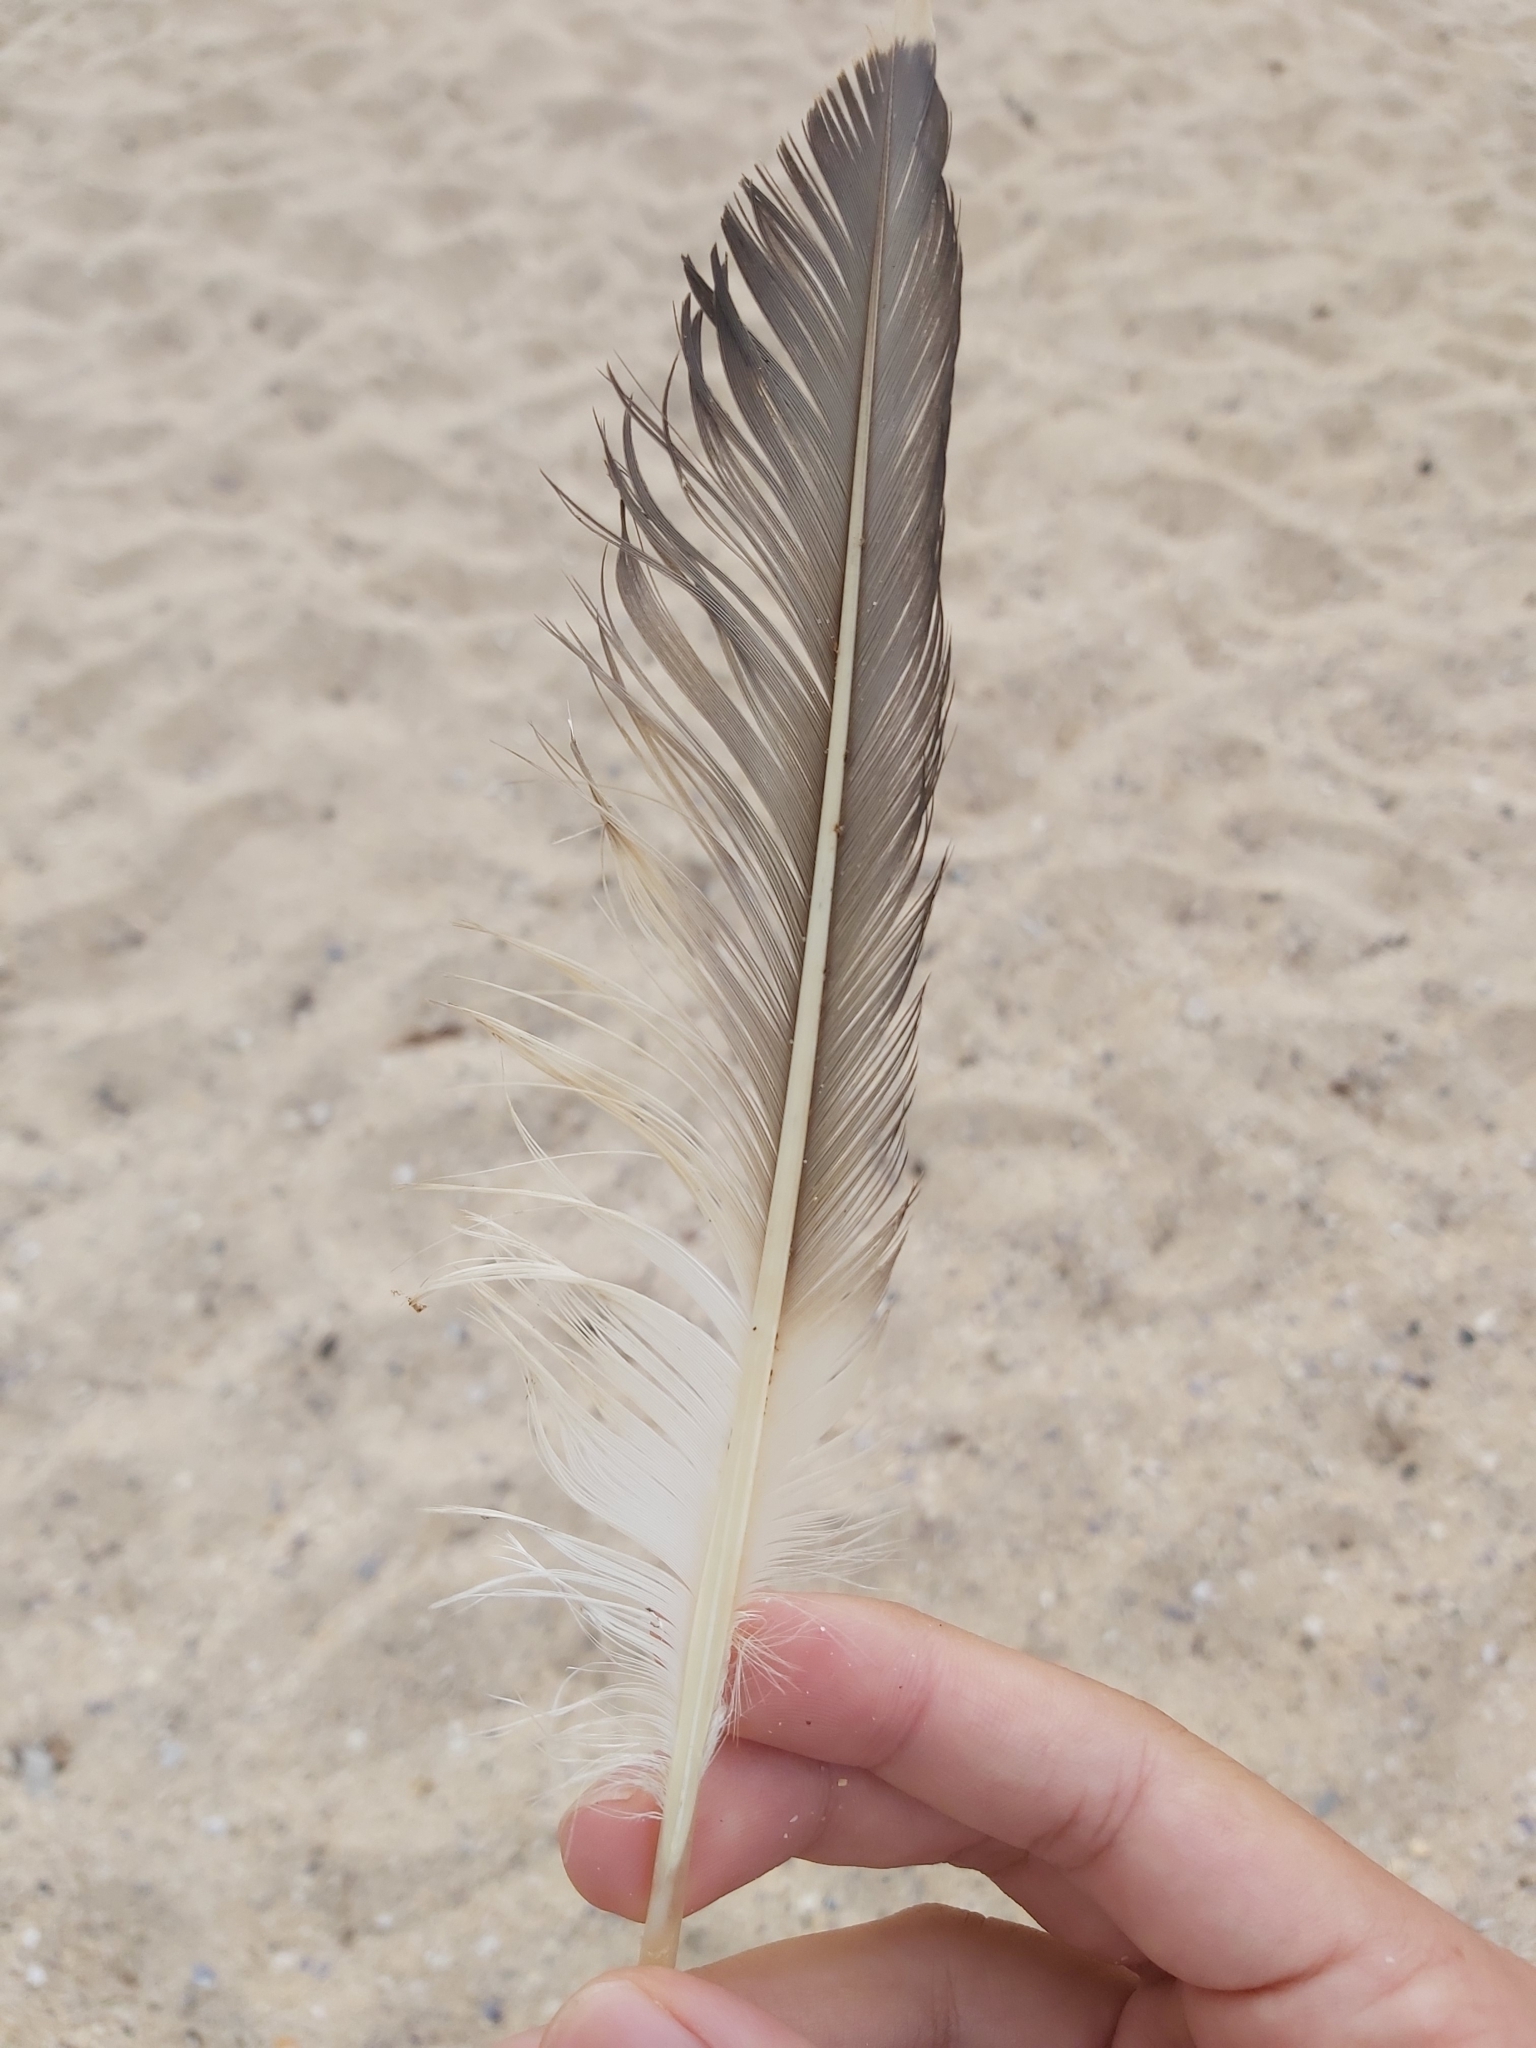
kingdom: Animalia
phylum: Chordata
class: Aves
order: Suliformes
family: Sulidae
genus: Morus
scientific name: Morus serrator
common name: Australasian gannet
